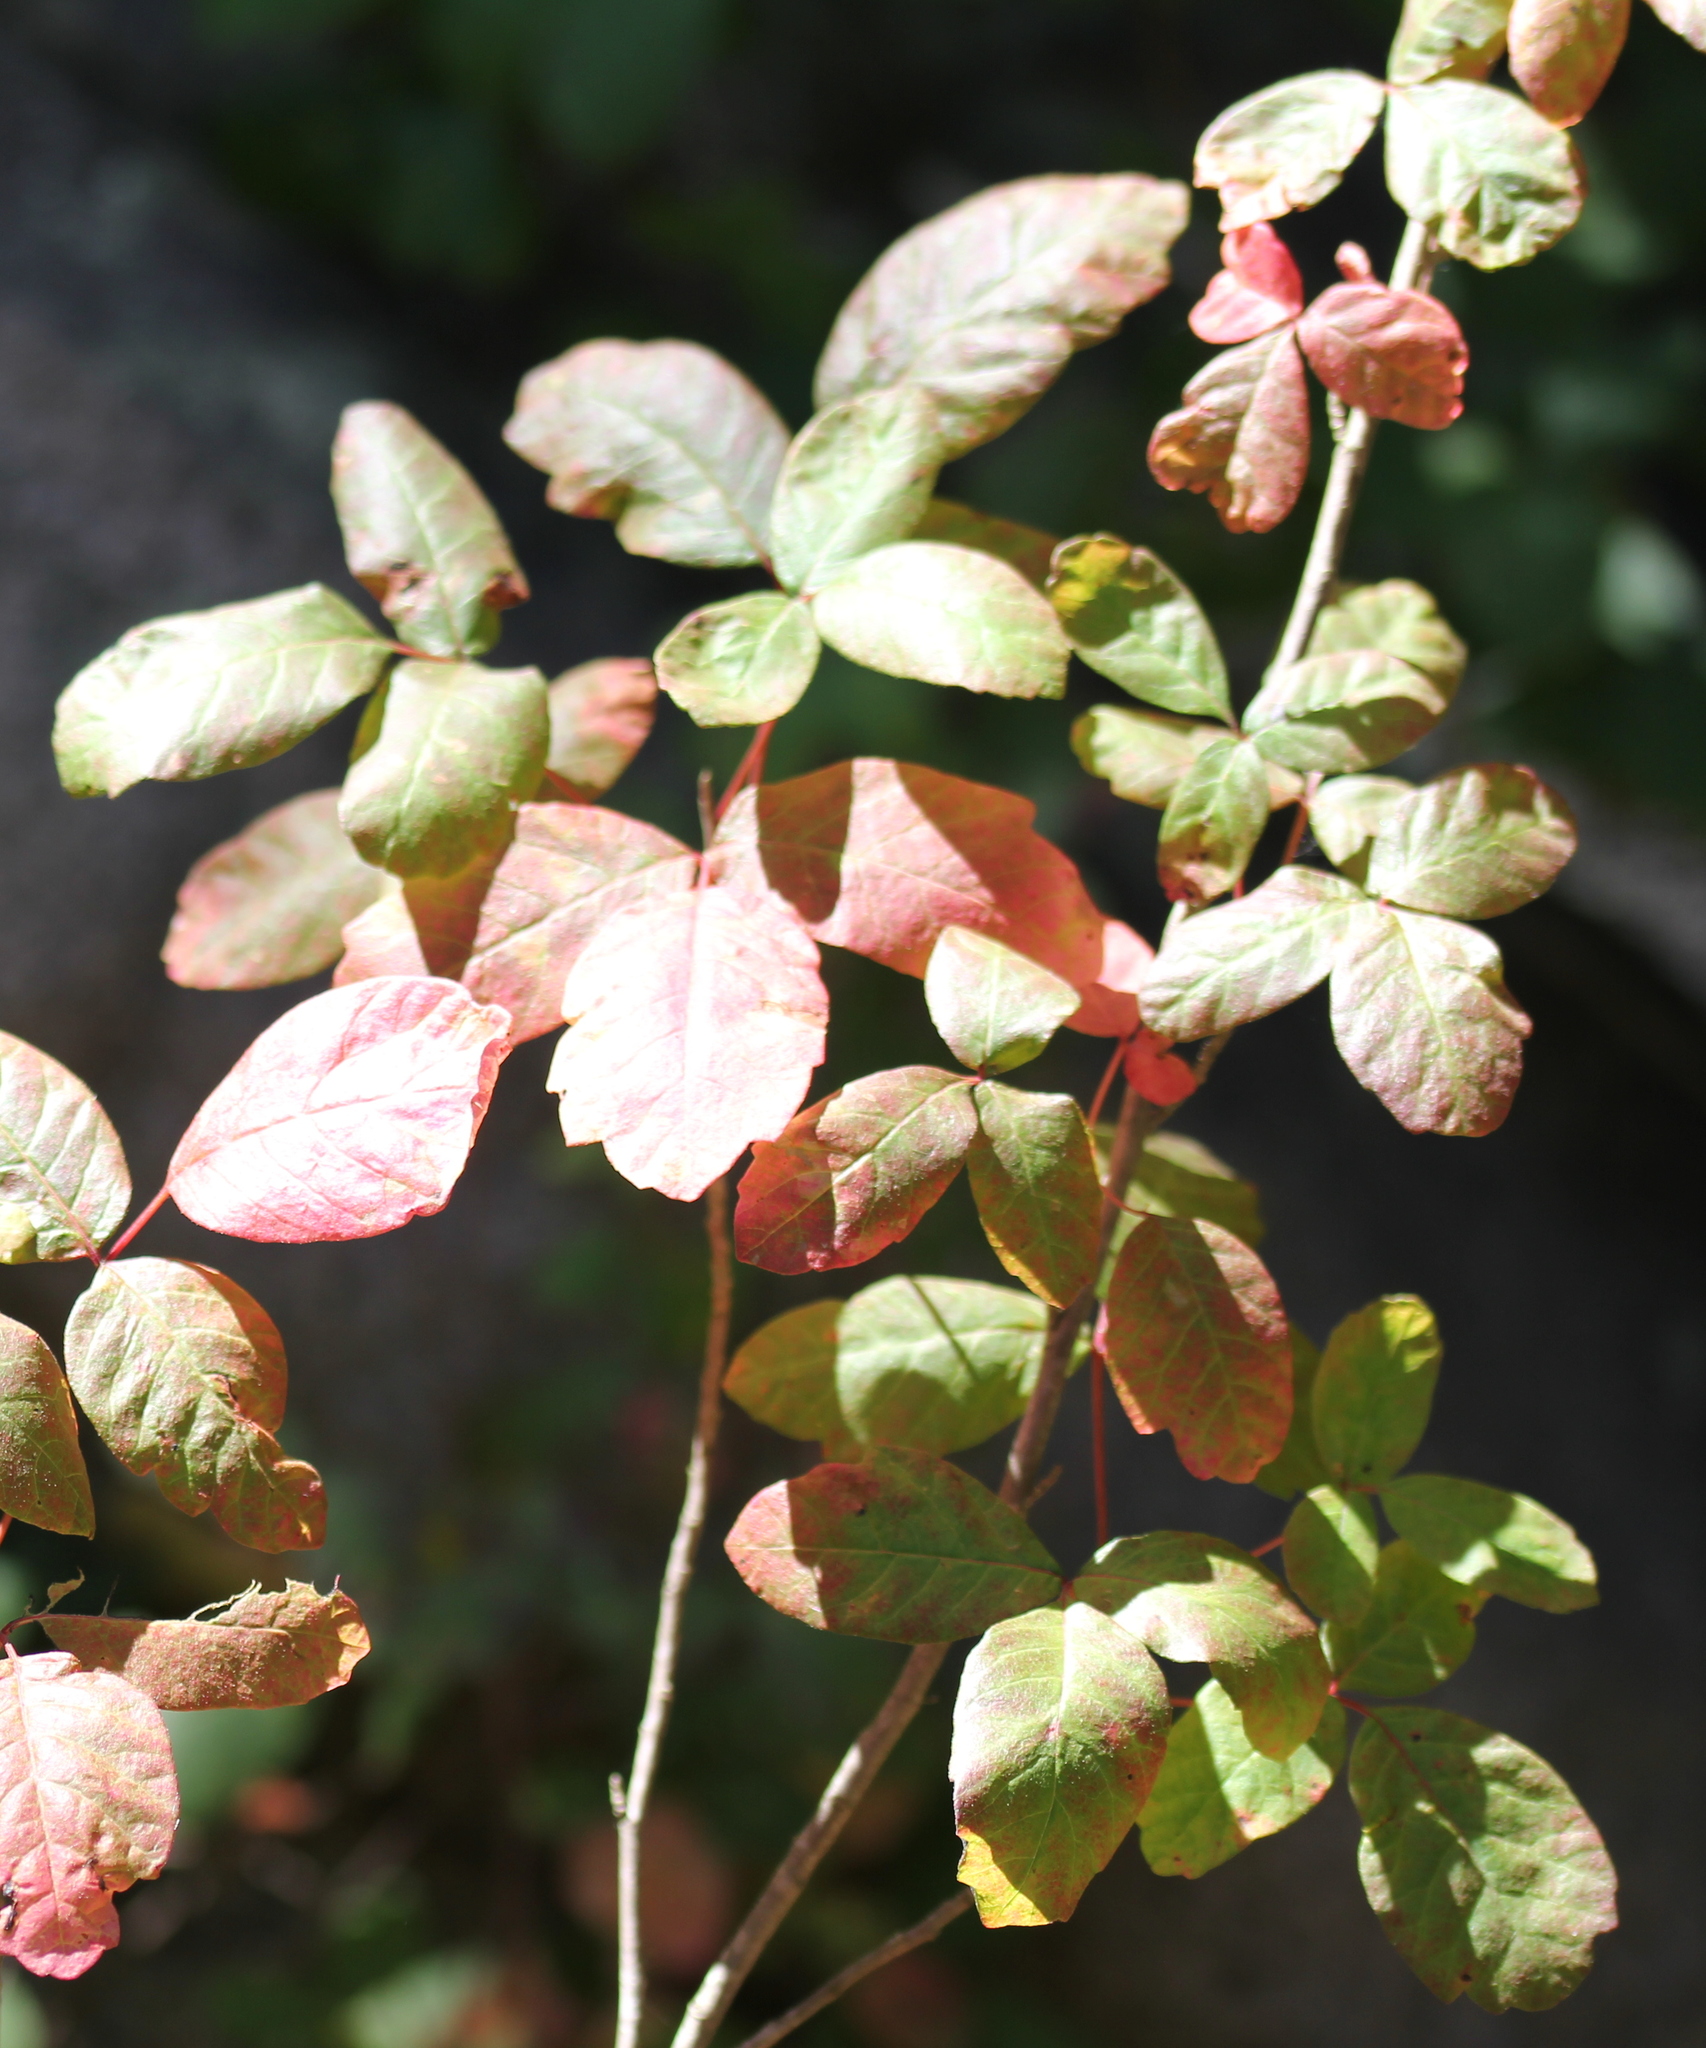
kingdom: Plantae
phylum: Tracheophyta
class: Magnoliopsida
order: Sapindales
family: Anacardiaceae
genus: Toxicodendron
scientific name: Toxicodendron diversilobum
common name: Pacific poison-oak
